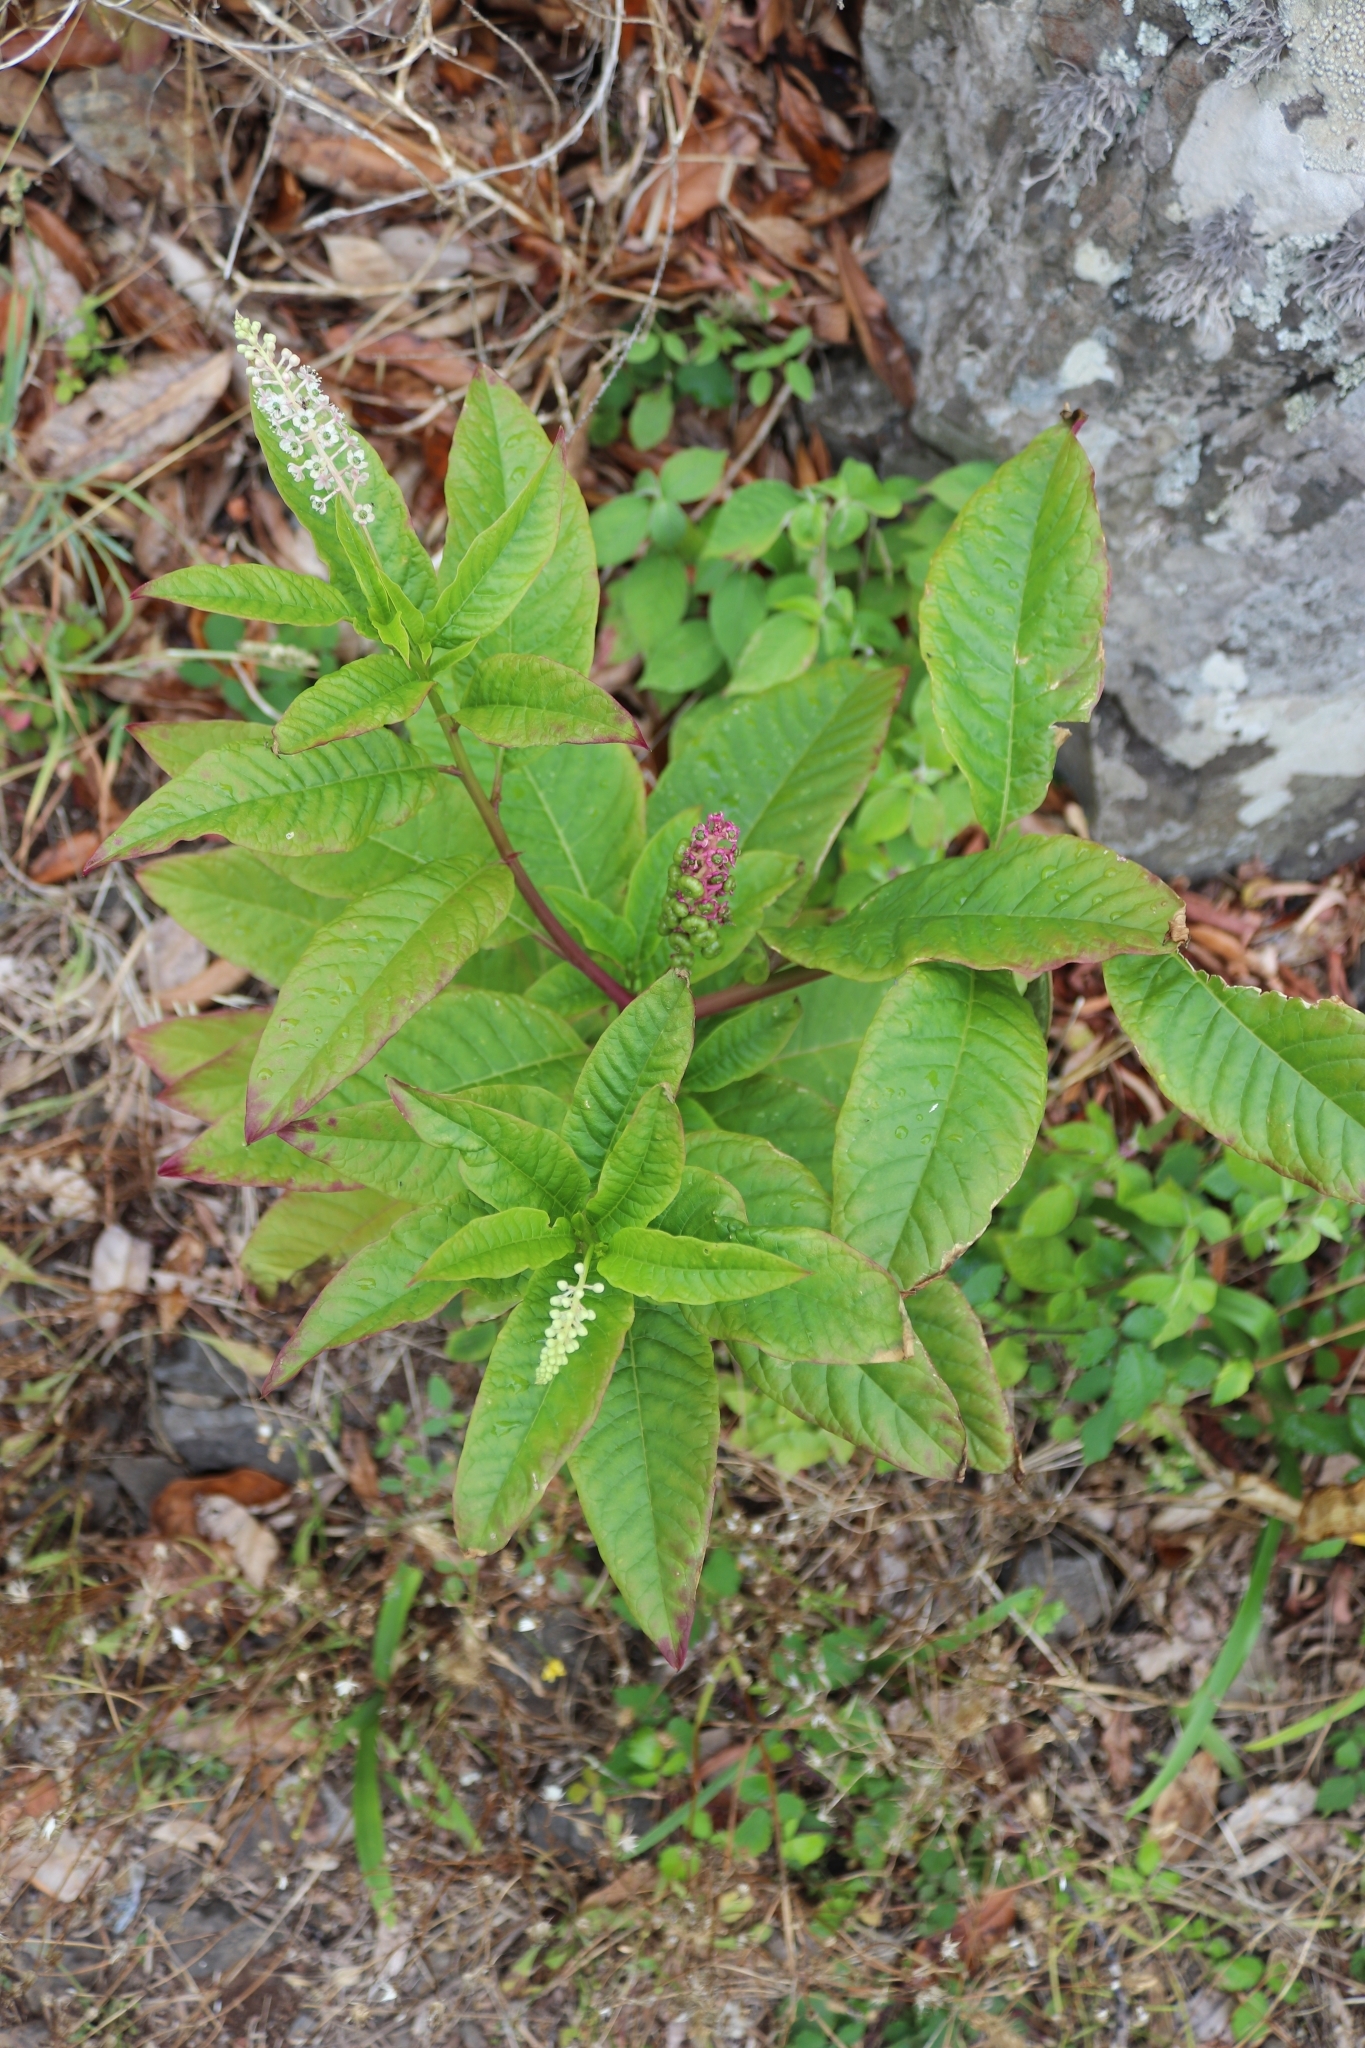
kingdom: Plantae
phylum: Tracheophyta
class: Magnoliopsida
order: Caryophyllales
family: Phytolaccaceae
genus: Phytolacca
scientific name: Phytolacca americana
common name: American pokeweed
